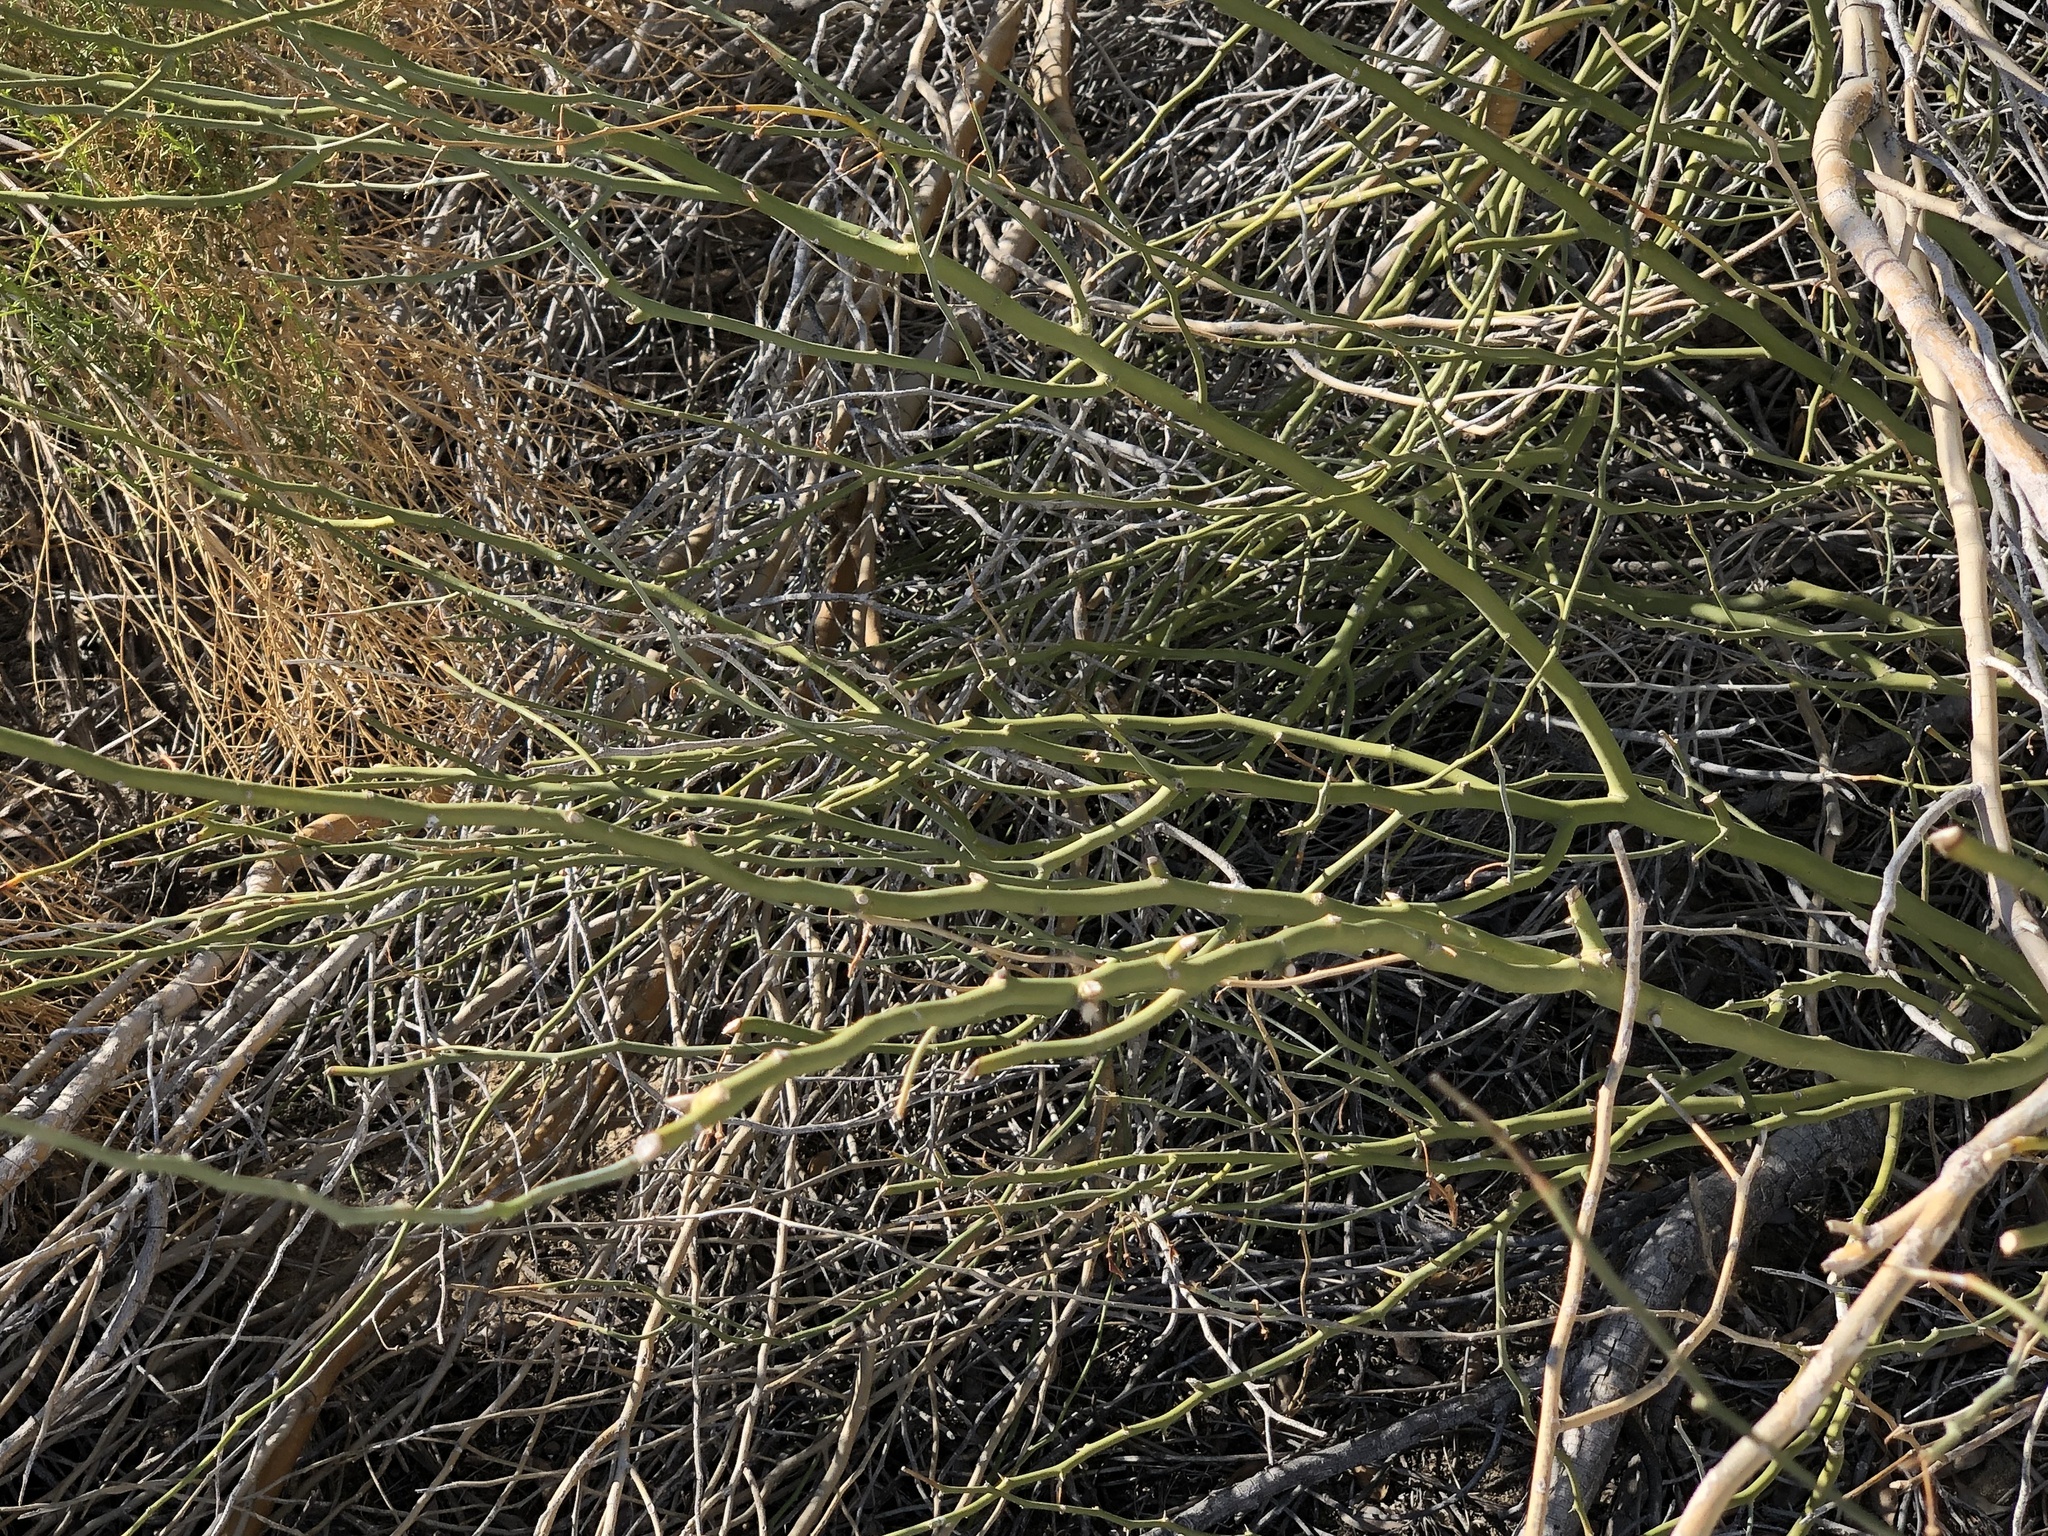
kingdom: Plantae
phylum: Tracheophyta
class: Magnoliopsida
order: Fabales
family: Fabaceae
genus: Parkinsonia
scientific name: Parkinsonia florida
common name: Blue paloverde
